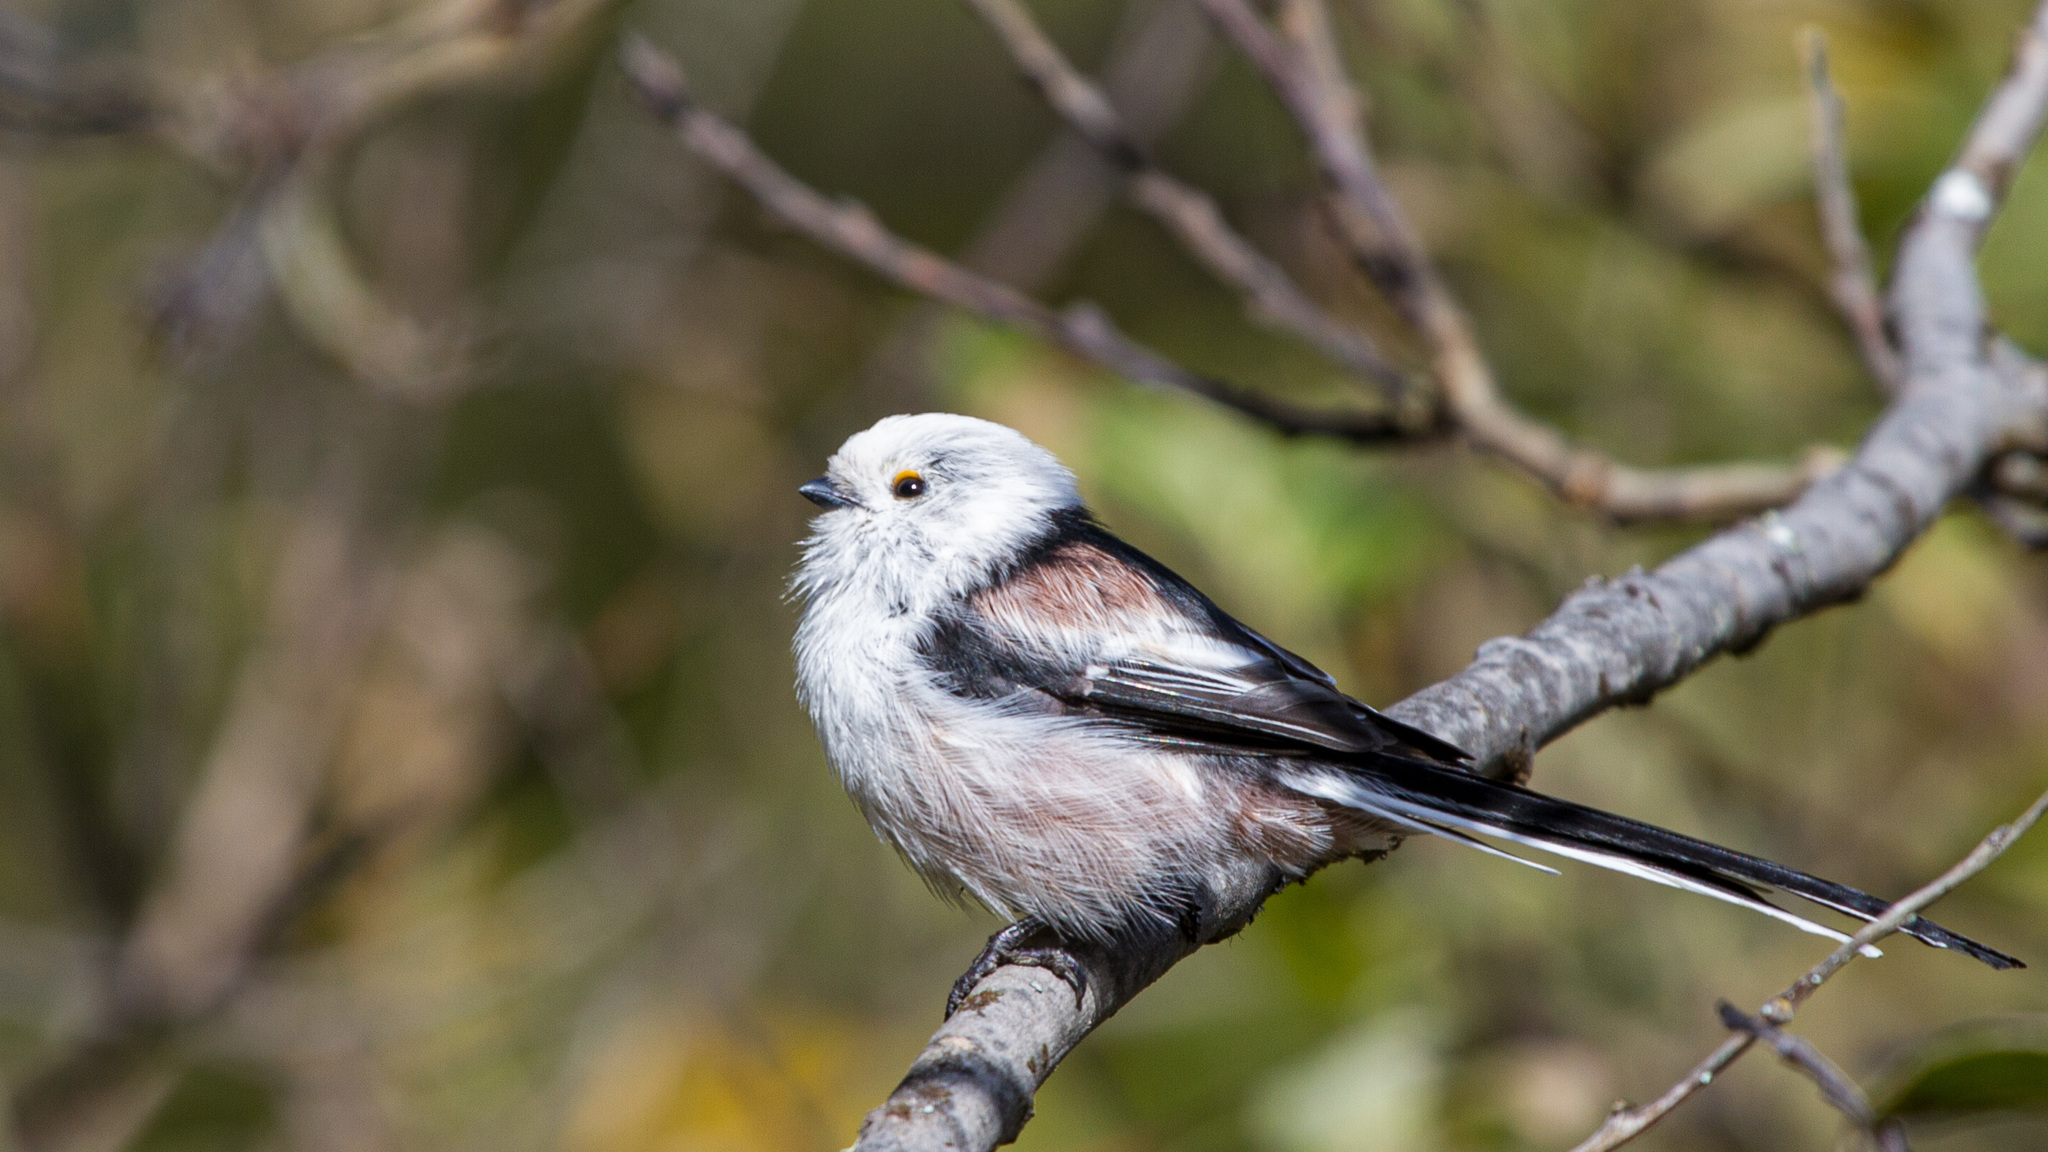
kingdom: Animalia
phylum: Chordata
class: Aves
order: Passeriformes
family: Aegithalidae
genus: Aegithalos
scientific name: Aegithalos caudatus
